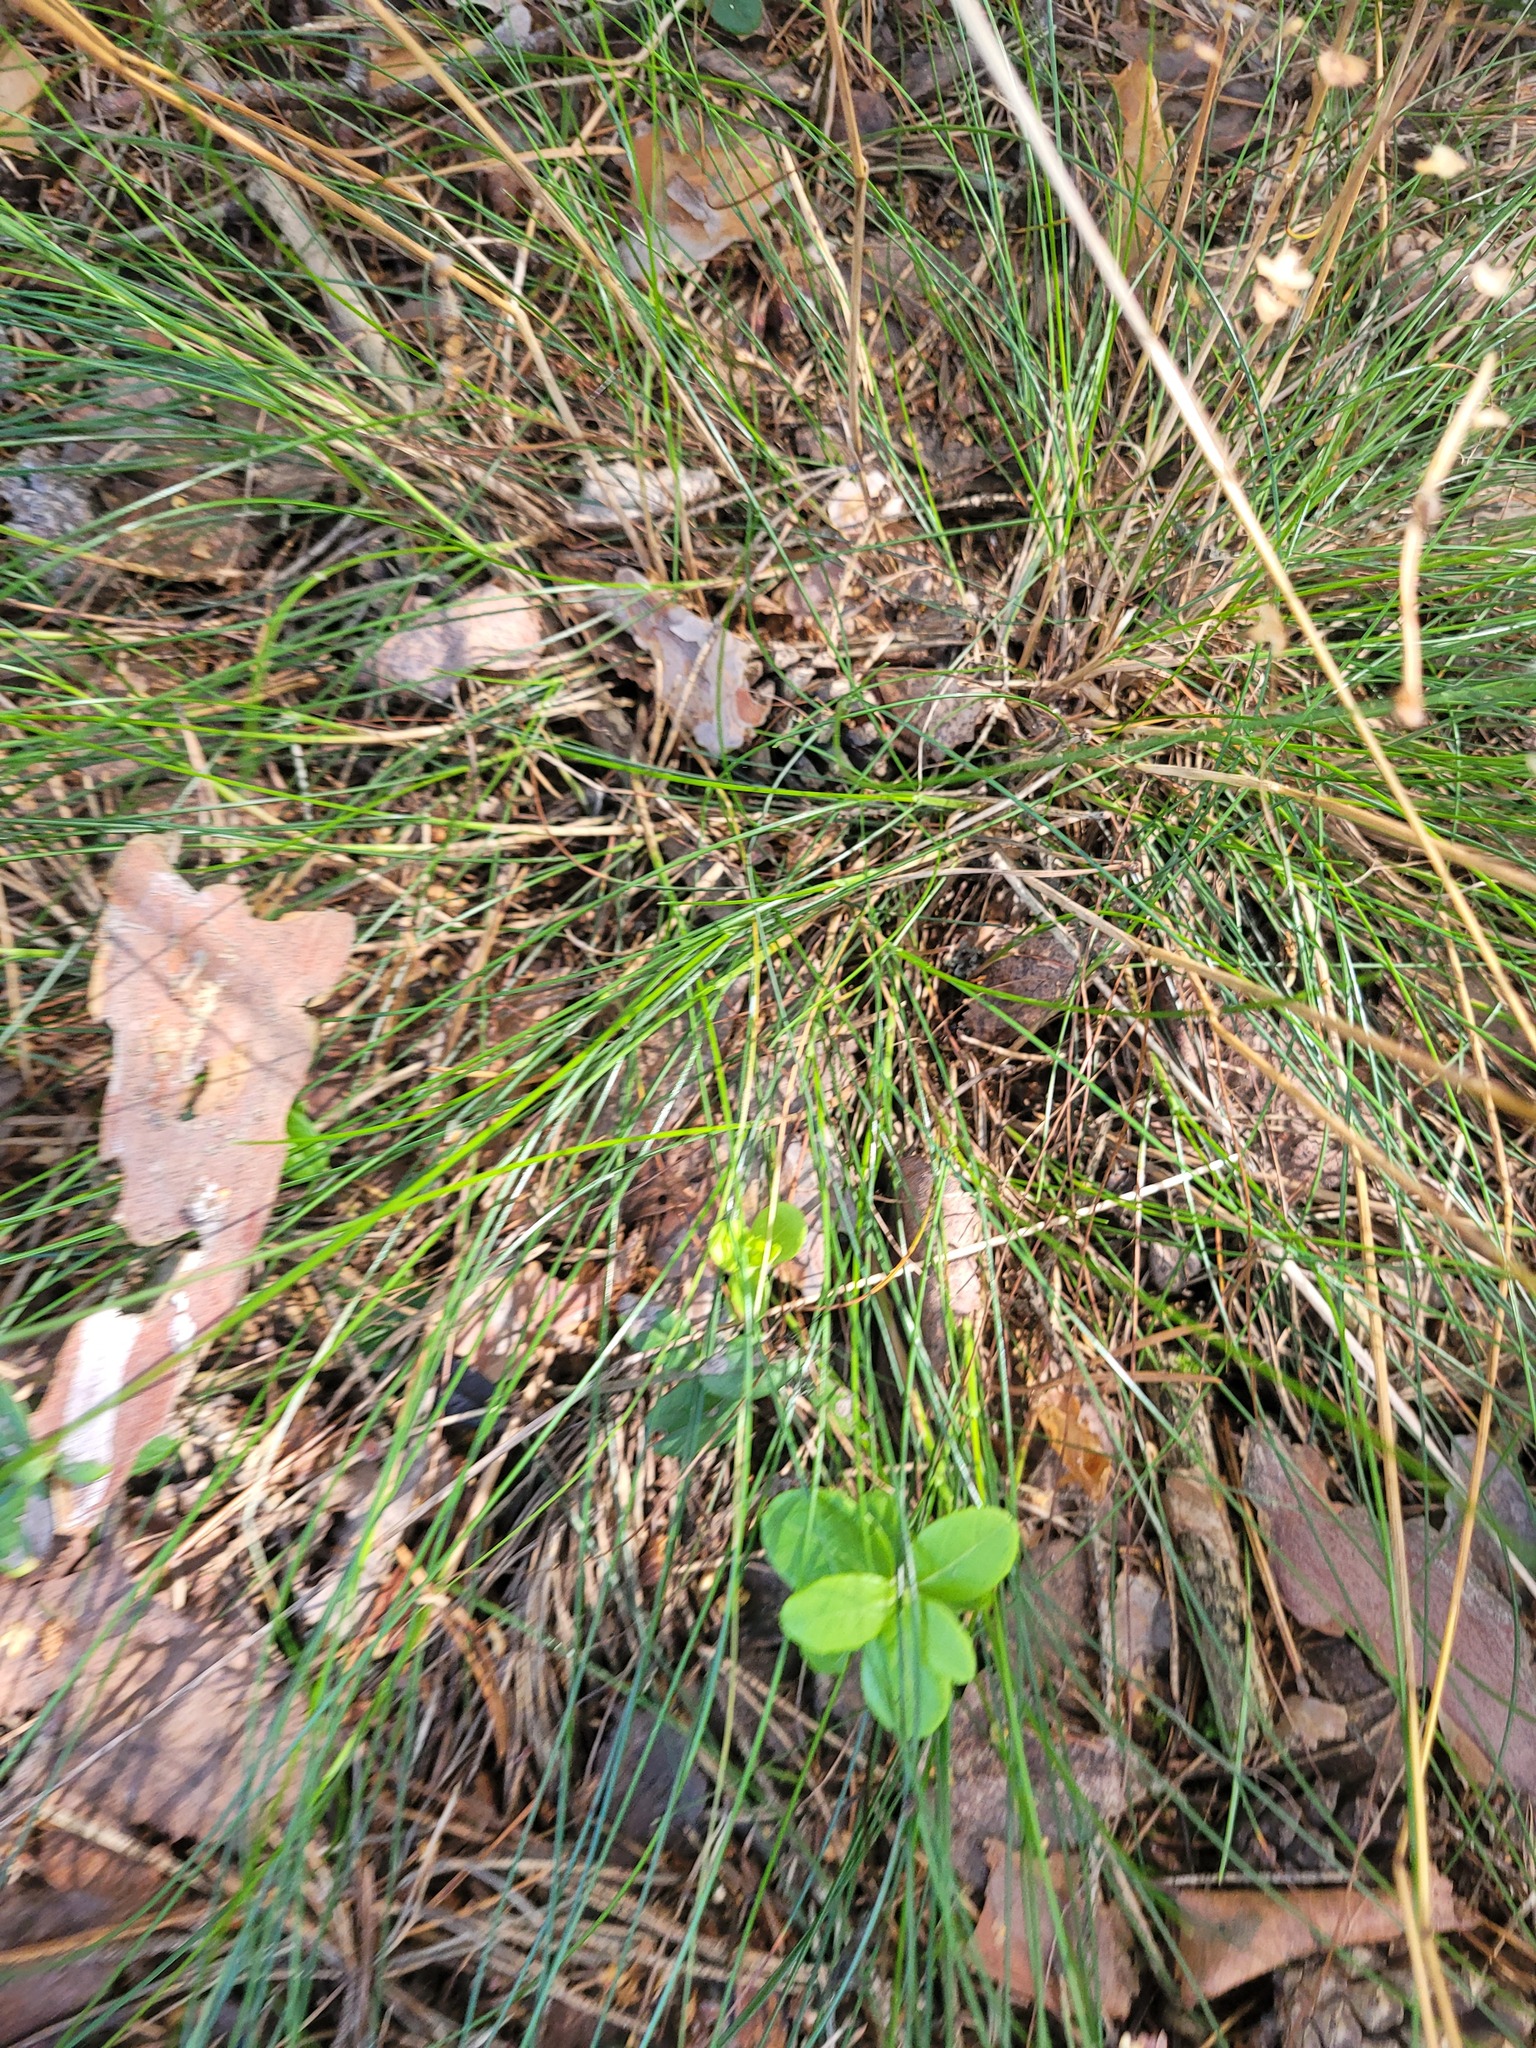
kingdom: Plantae
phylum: Tracheophyta
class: Liliopsida
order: Poales
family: Poaceae
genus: Festuca
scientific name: Festuca ovina
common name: Sheep fescue
